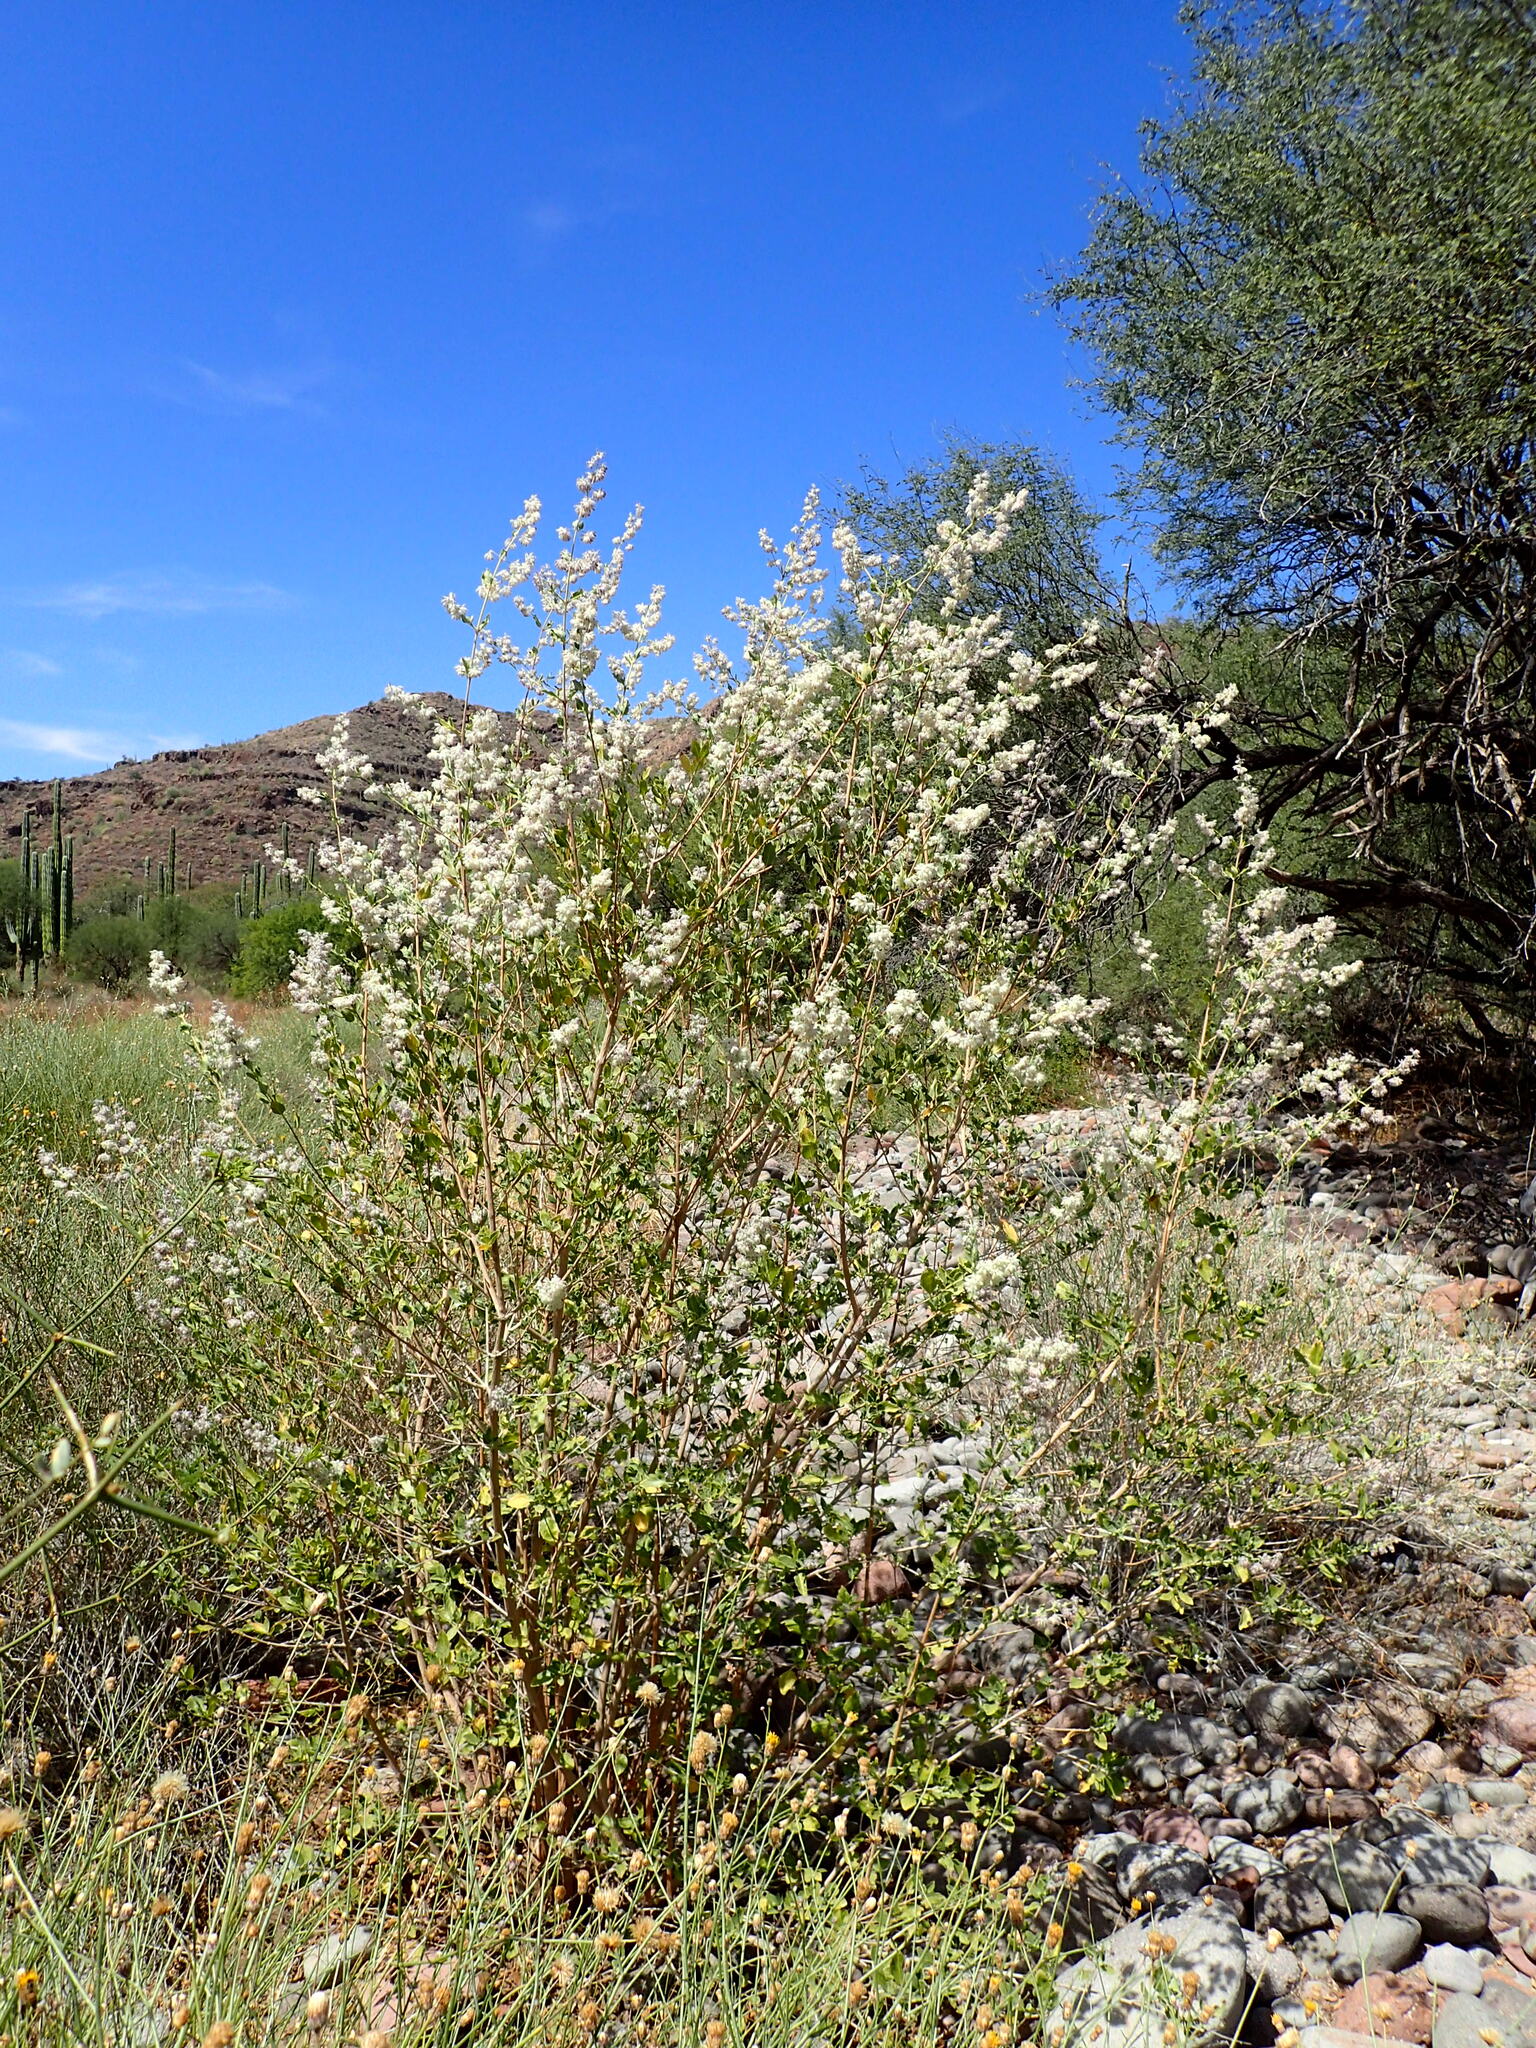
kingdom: Plantae
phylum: Tracheophyta
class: Magnoliopsida
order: Lamiales
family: Lamiaceae
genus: Condea
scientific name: Condea emoryi
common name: Chia
